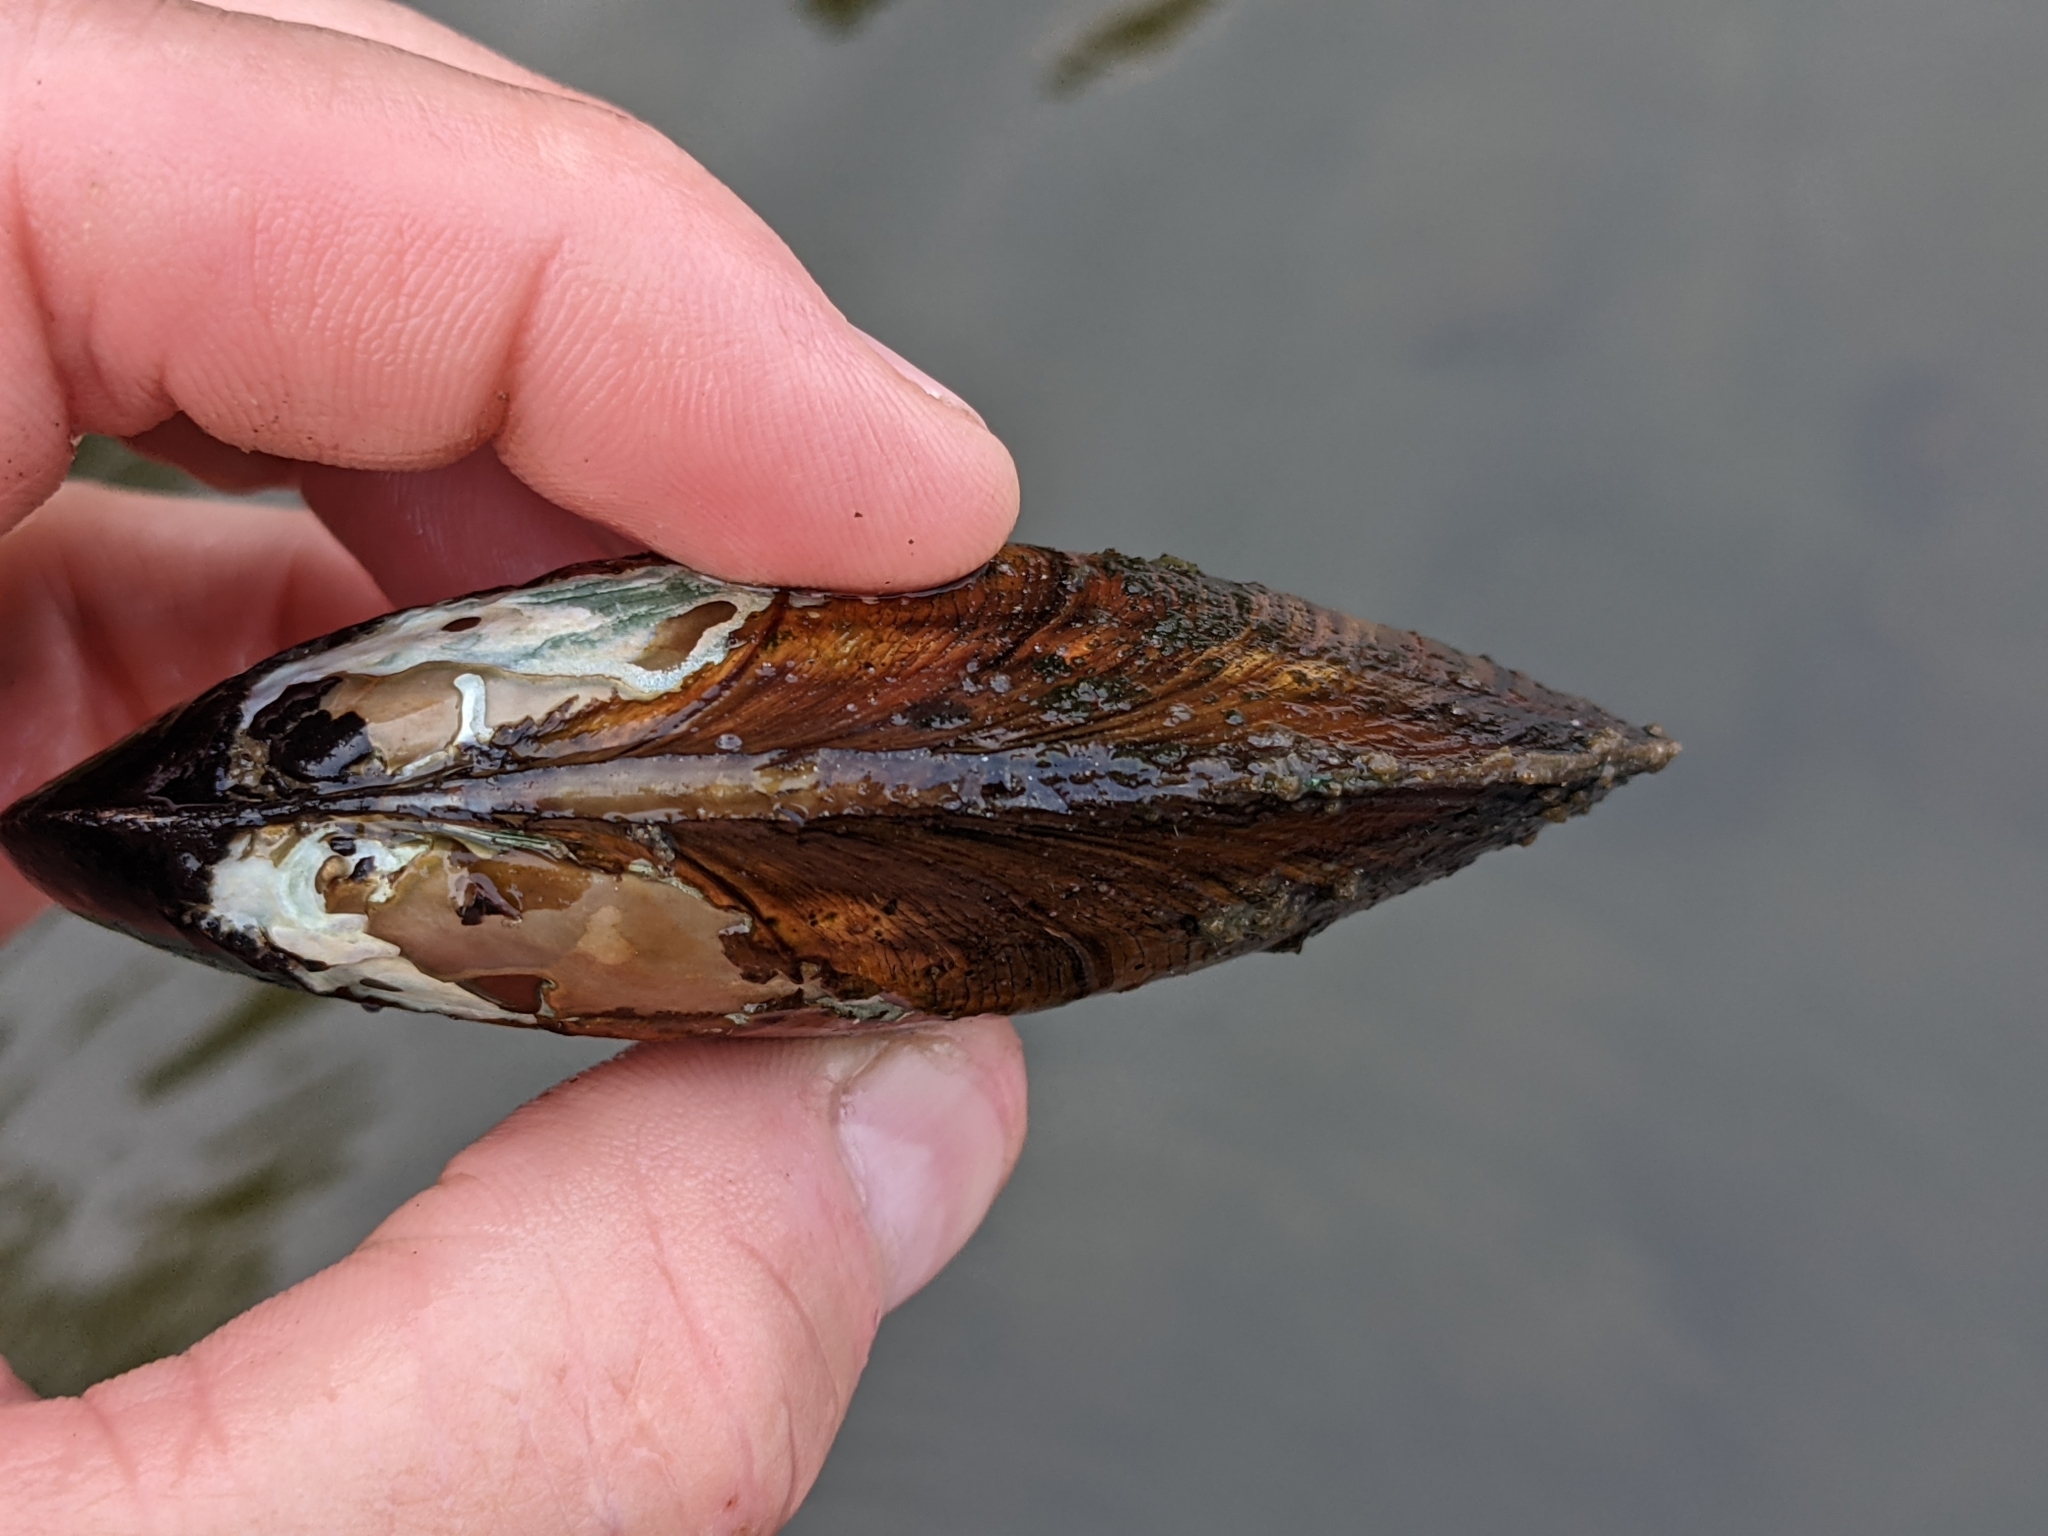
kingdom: Animalia
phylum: Mollusca
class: Bivalvia
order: Unionida
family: Unionidae
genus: Elliptio
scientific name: Elliptio complanata
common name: Eastern elliptio
